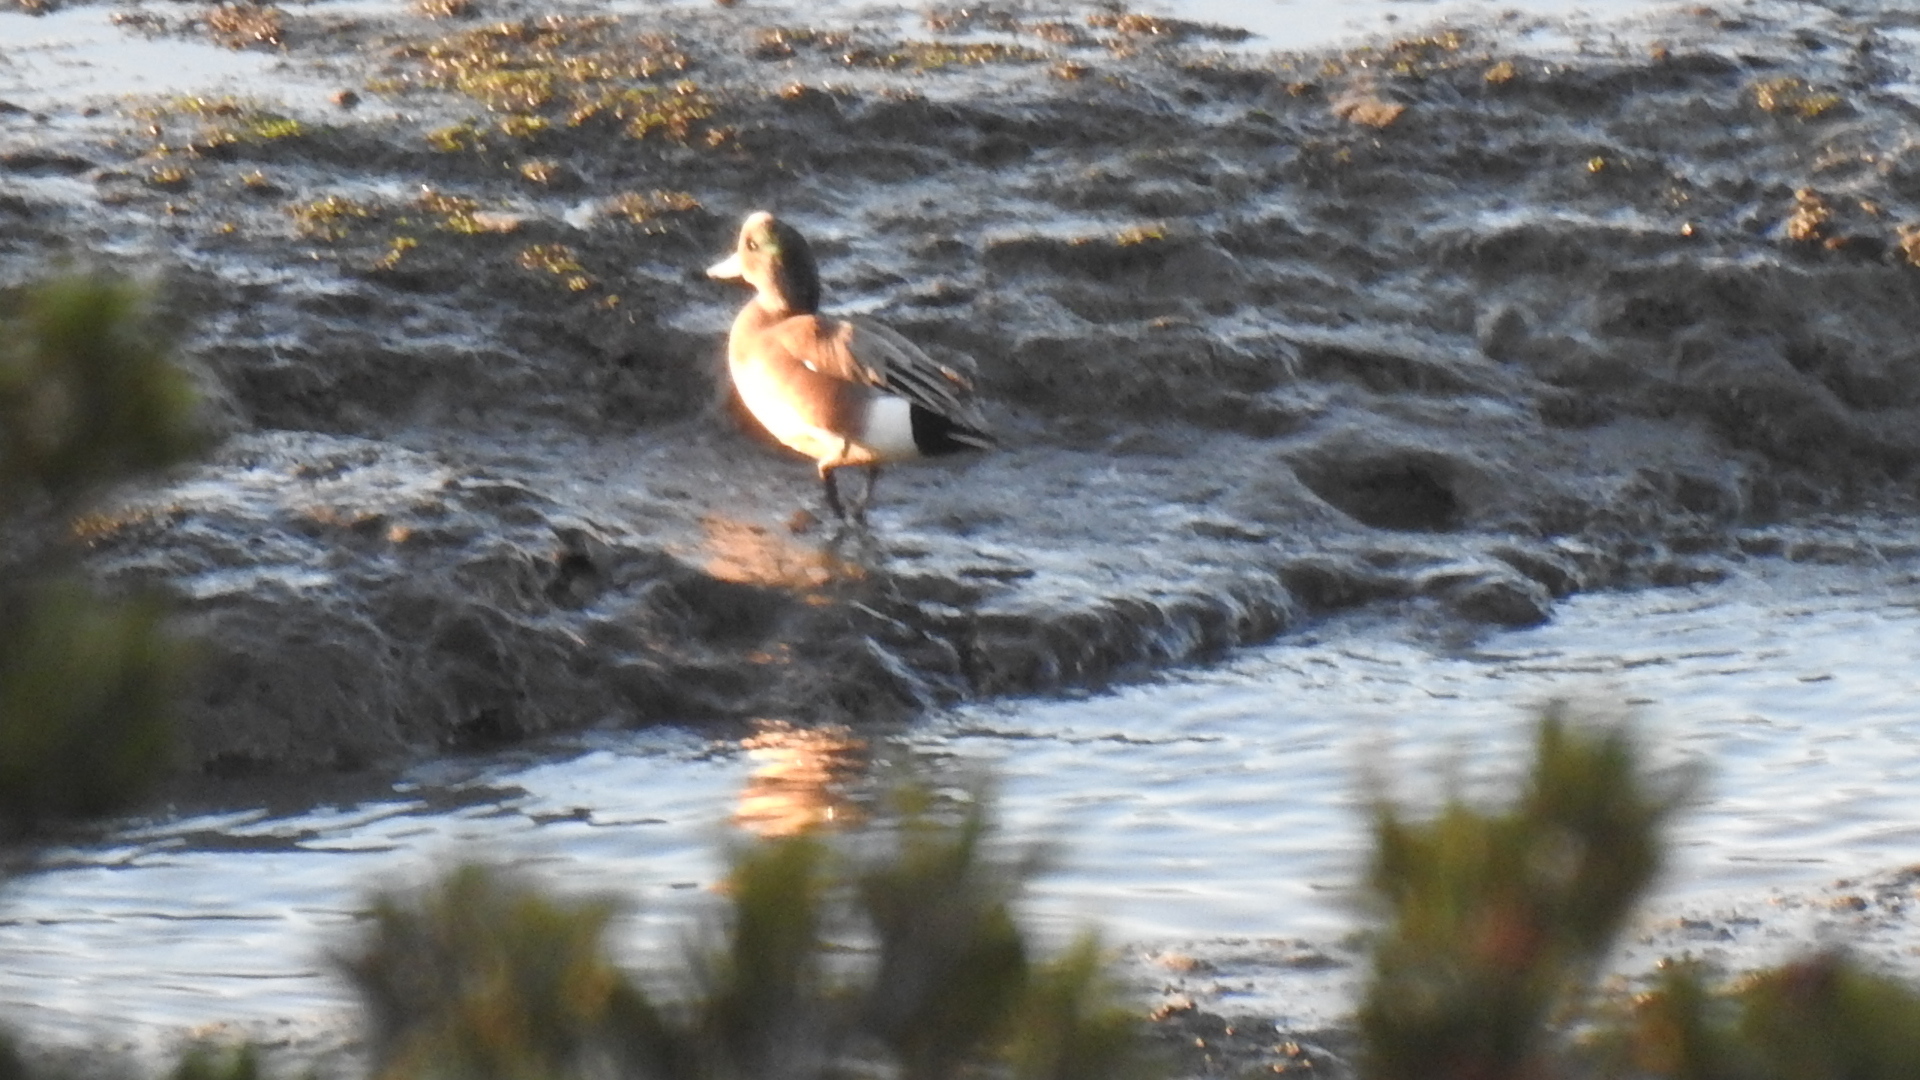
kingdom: Animalia
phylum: Chordata
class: Aves
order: Anseriformes
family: Anatidae
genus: Mareca
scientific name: Mareca americana
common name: American wigeon
